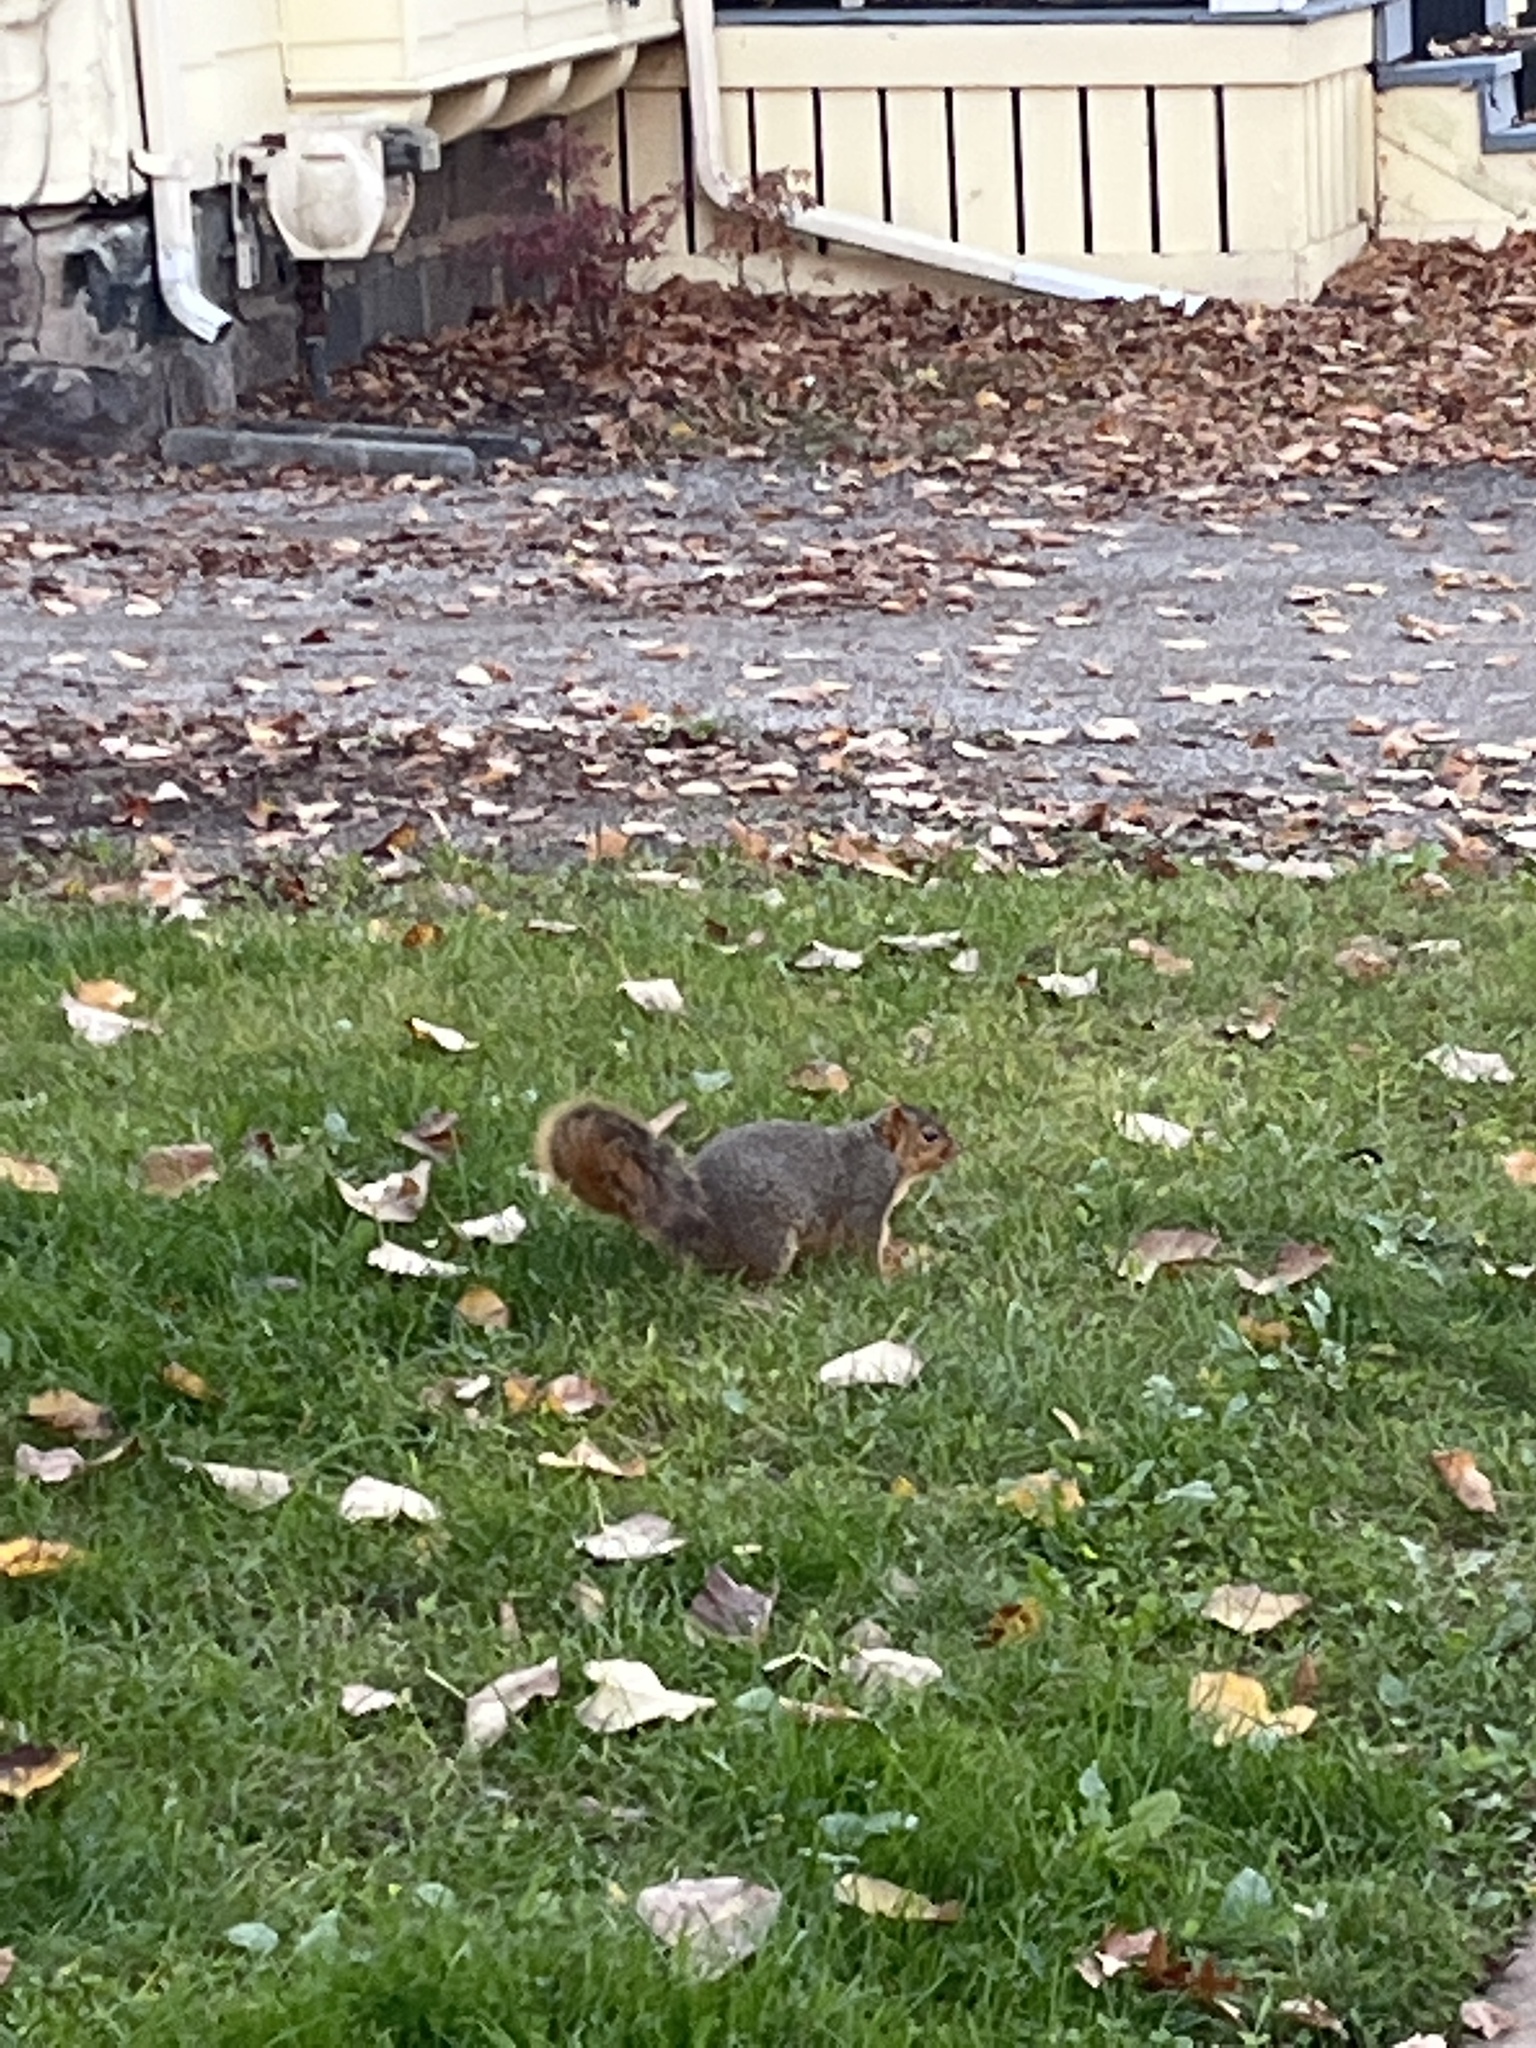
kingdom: Animalia
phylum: Chordata
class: Mammalia
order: Rodentia
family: Sciuridae
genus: Sciurus
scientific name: Sciurus niger
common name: Fox squirrel
